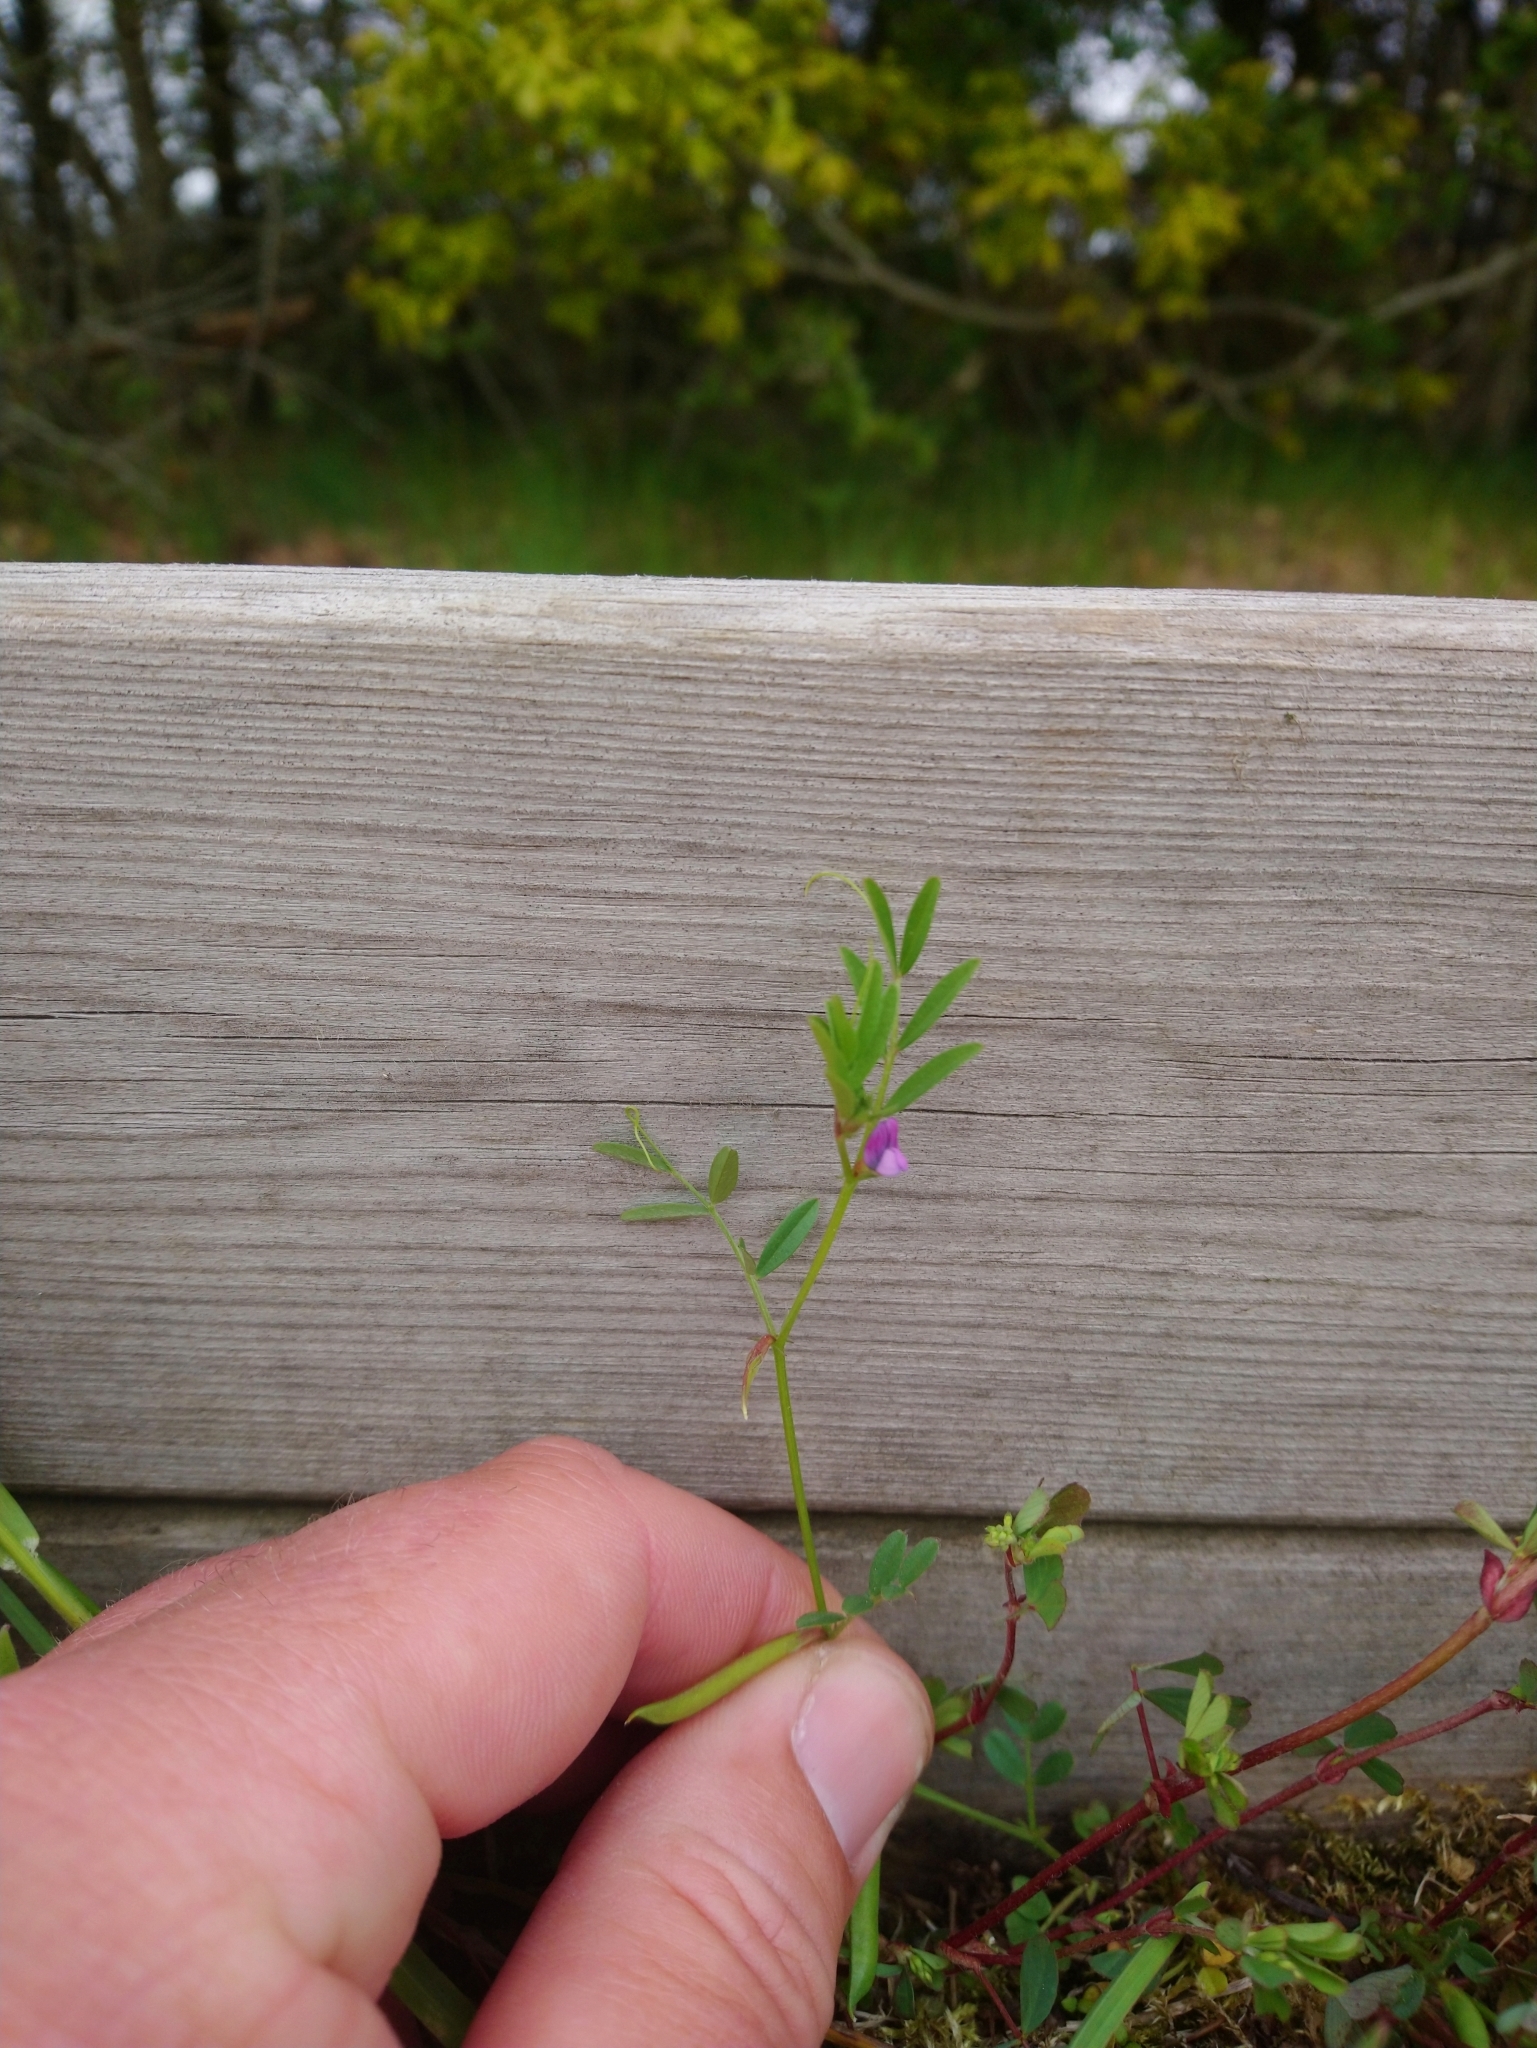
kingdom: Plantae
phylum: Tracheophyta
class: Magnoliopsida
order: Fabales
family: Fabaceae
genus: Vicia
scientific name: Vicia lathyroides
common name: Spring vetch
